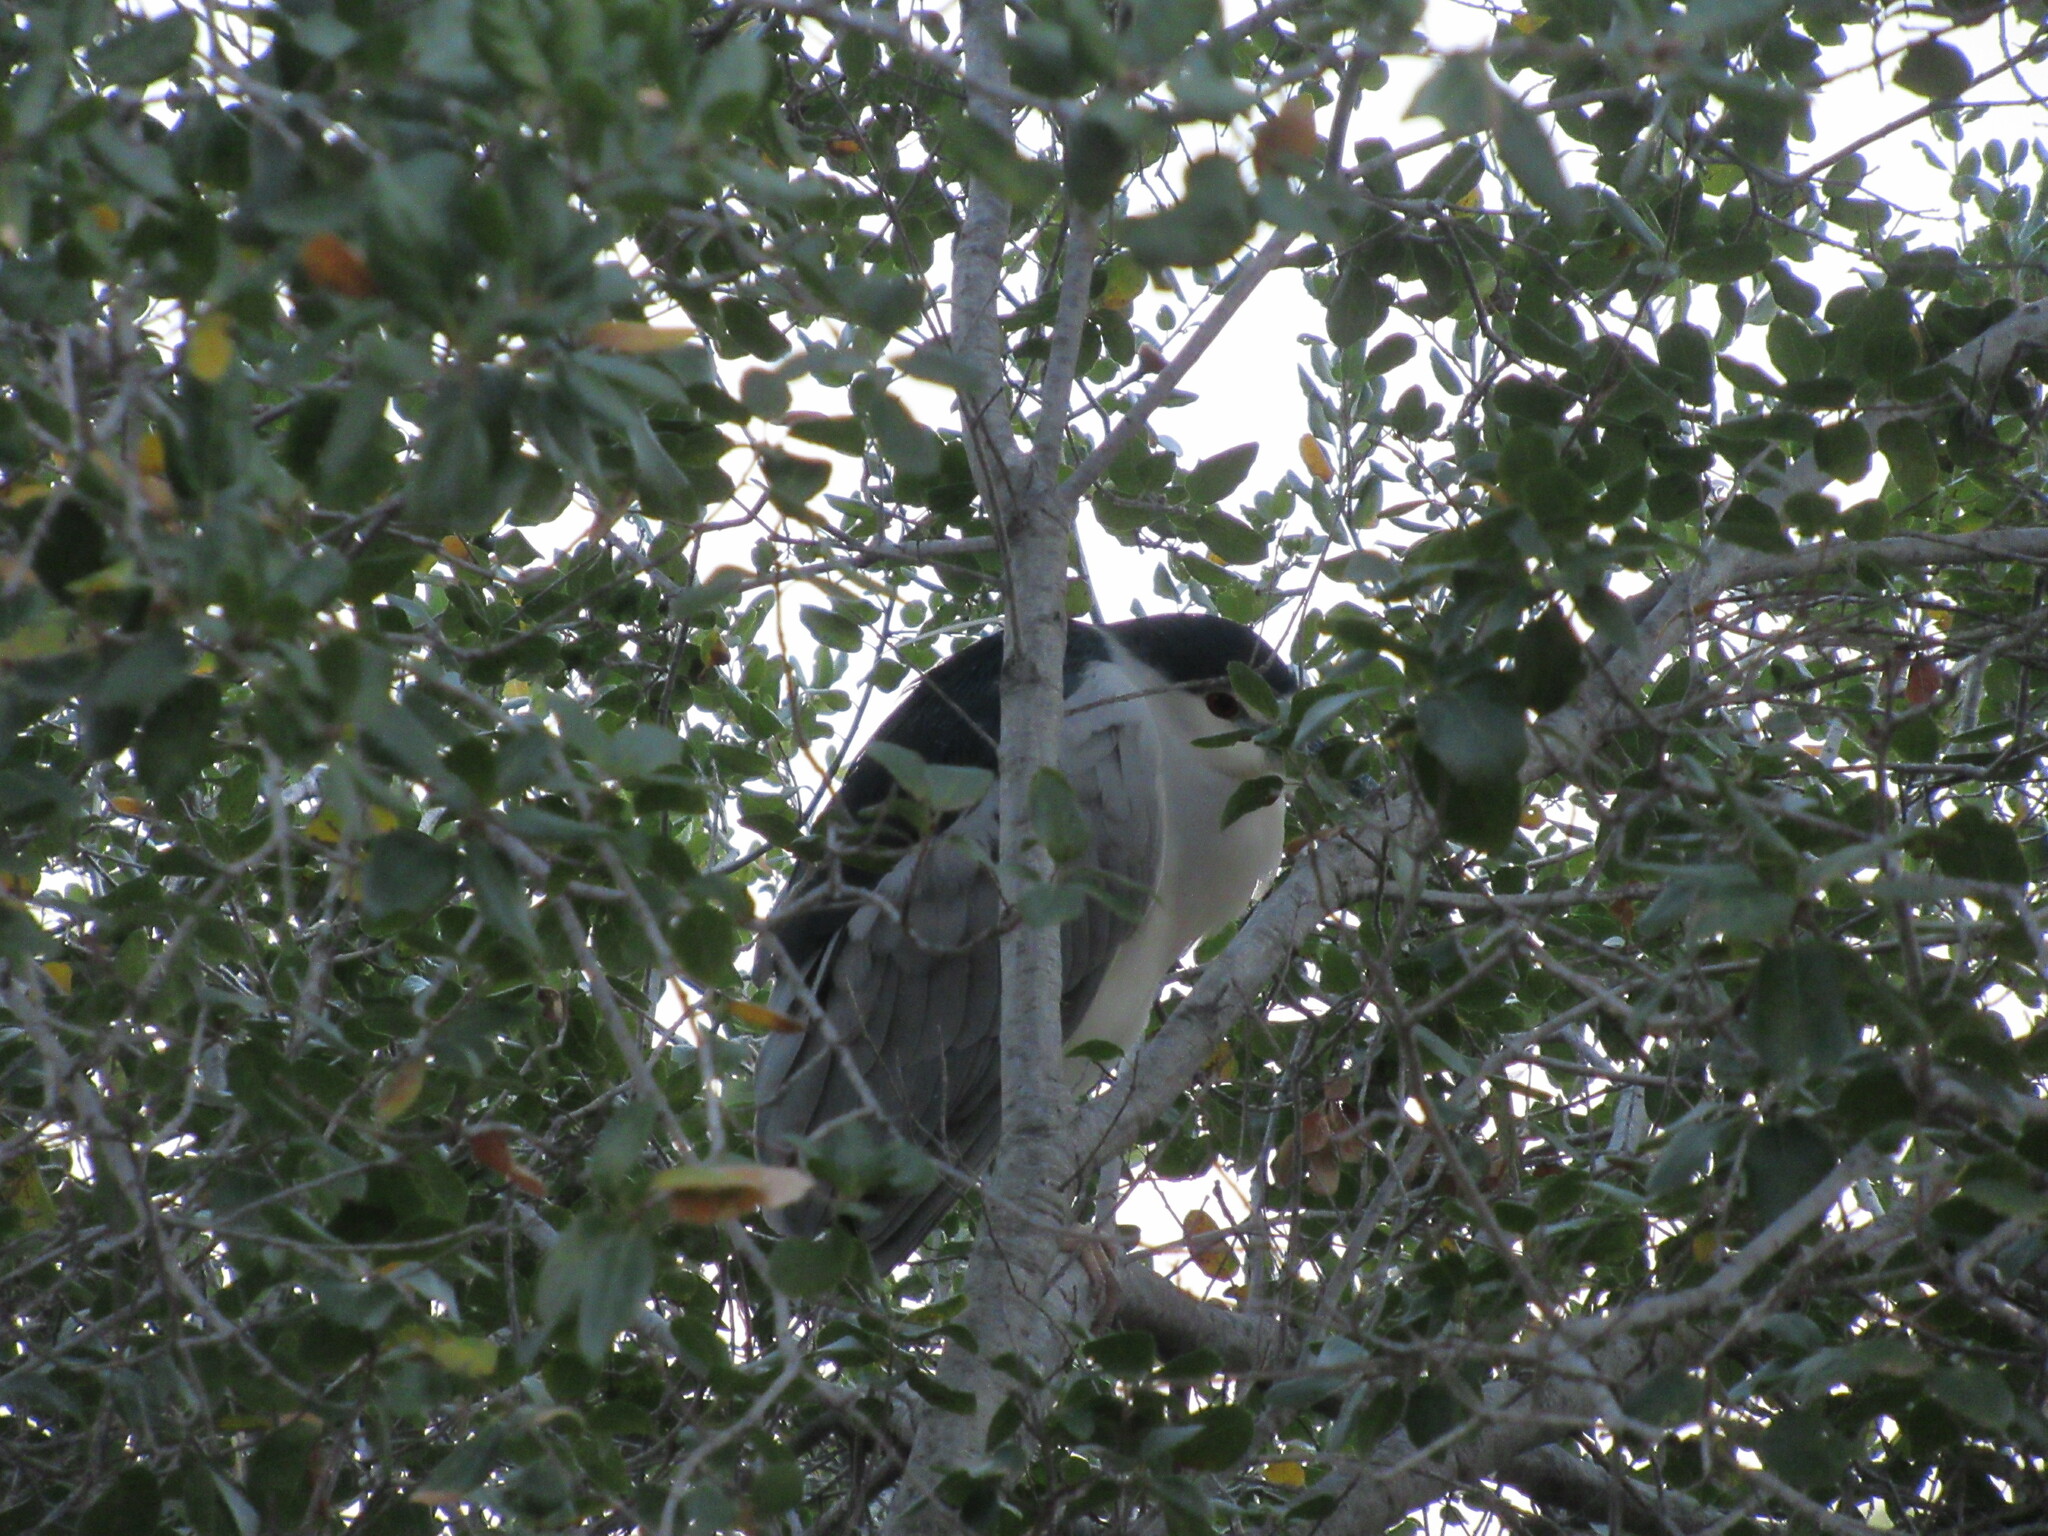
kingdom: Animalia
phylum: Chordata
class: Aves
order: Pelecaniformes
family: Ardeidae
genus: Nycticorax
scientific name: Nycticorax nycticorax
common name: Black-crowned night heron
